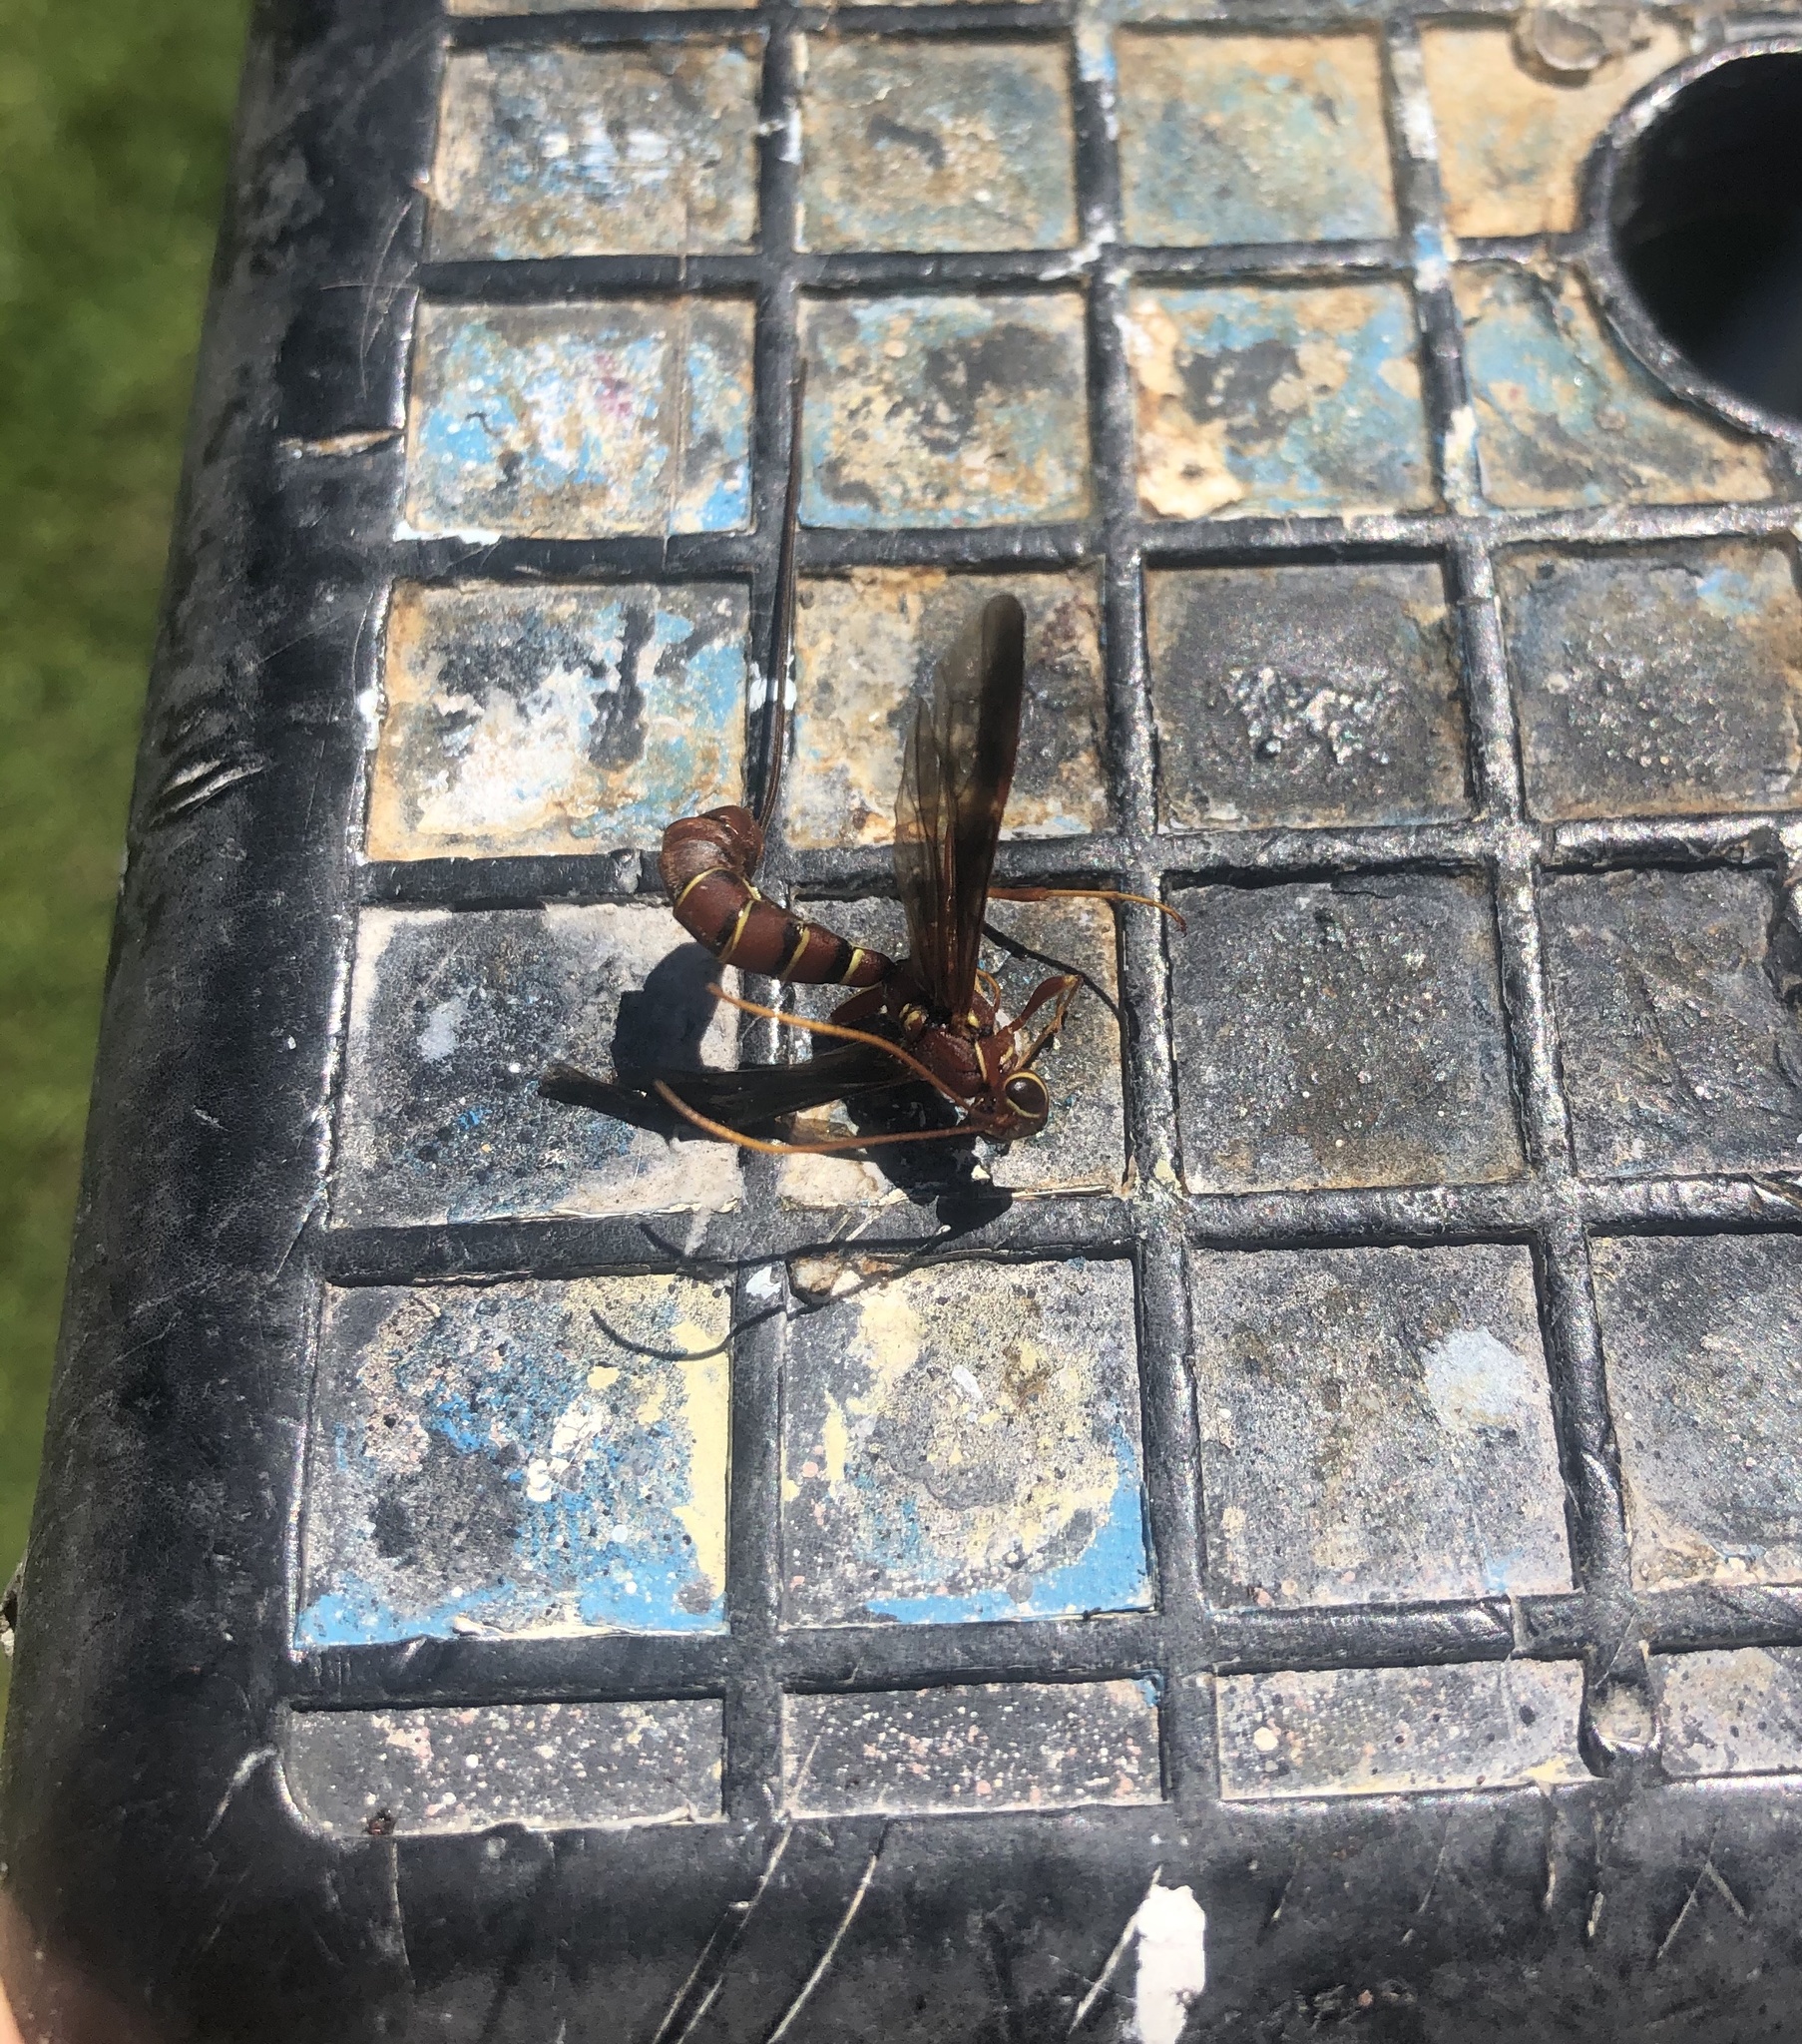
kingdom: Animalia
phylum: Arthropoda
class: Insecta
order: Hymenoptera
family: Ichneumonidae
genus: Megarhyssa
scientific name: Megarhyssa greenei
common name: Greene's giant ichneumonid wasp
